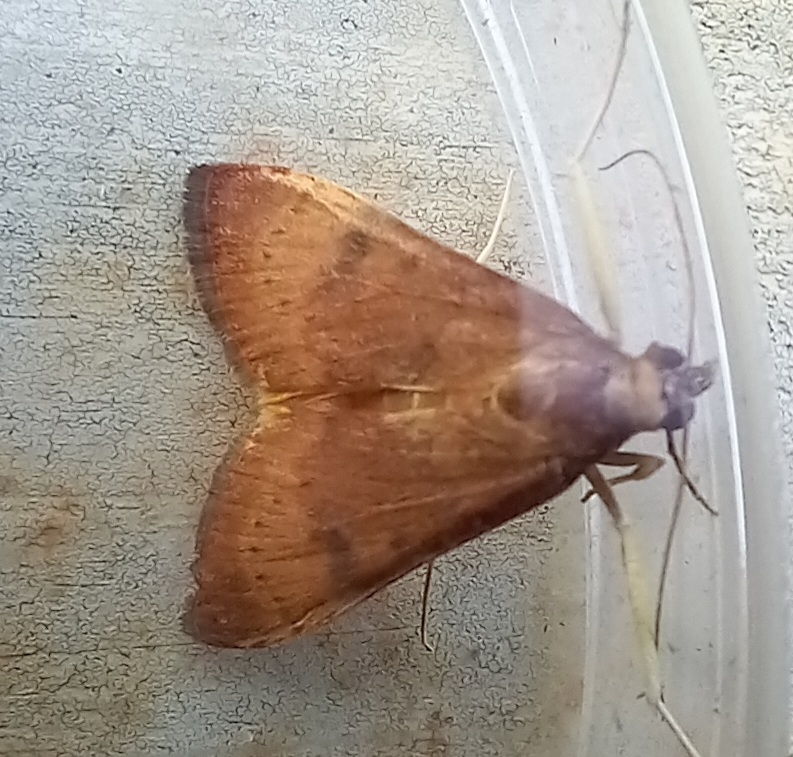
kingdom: Animalia
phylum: Arthropoda
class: Insecta
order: Lepidoptera
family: Crambidae
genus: Uresiphita
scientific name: Uresiphita gilvata
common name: Yellow-underwing pearl
